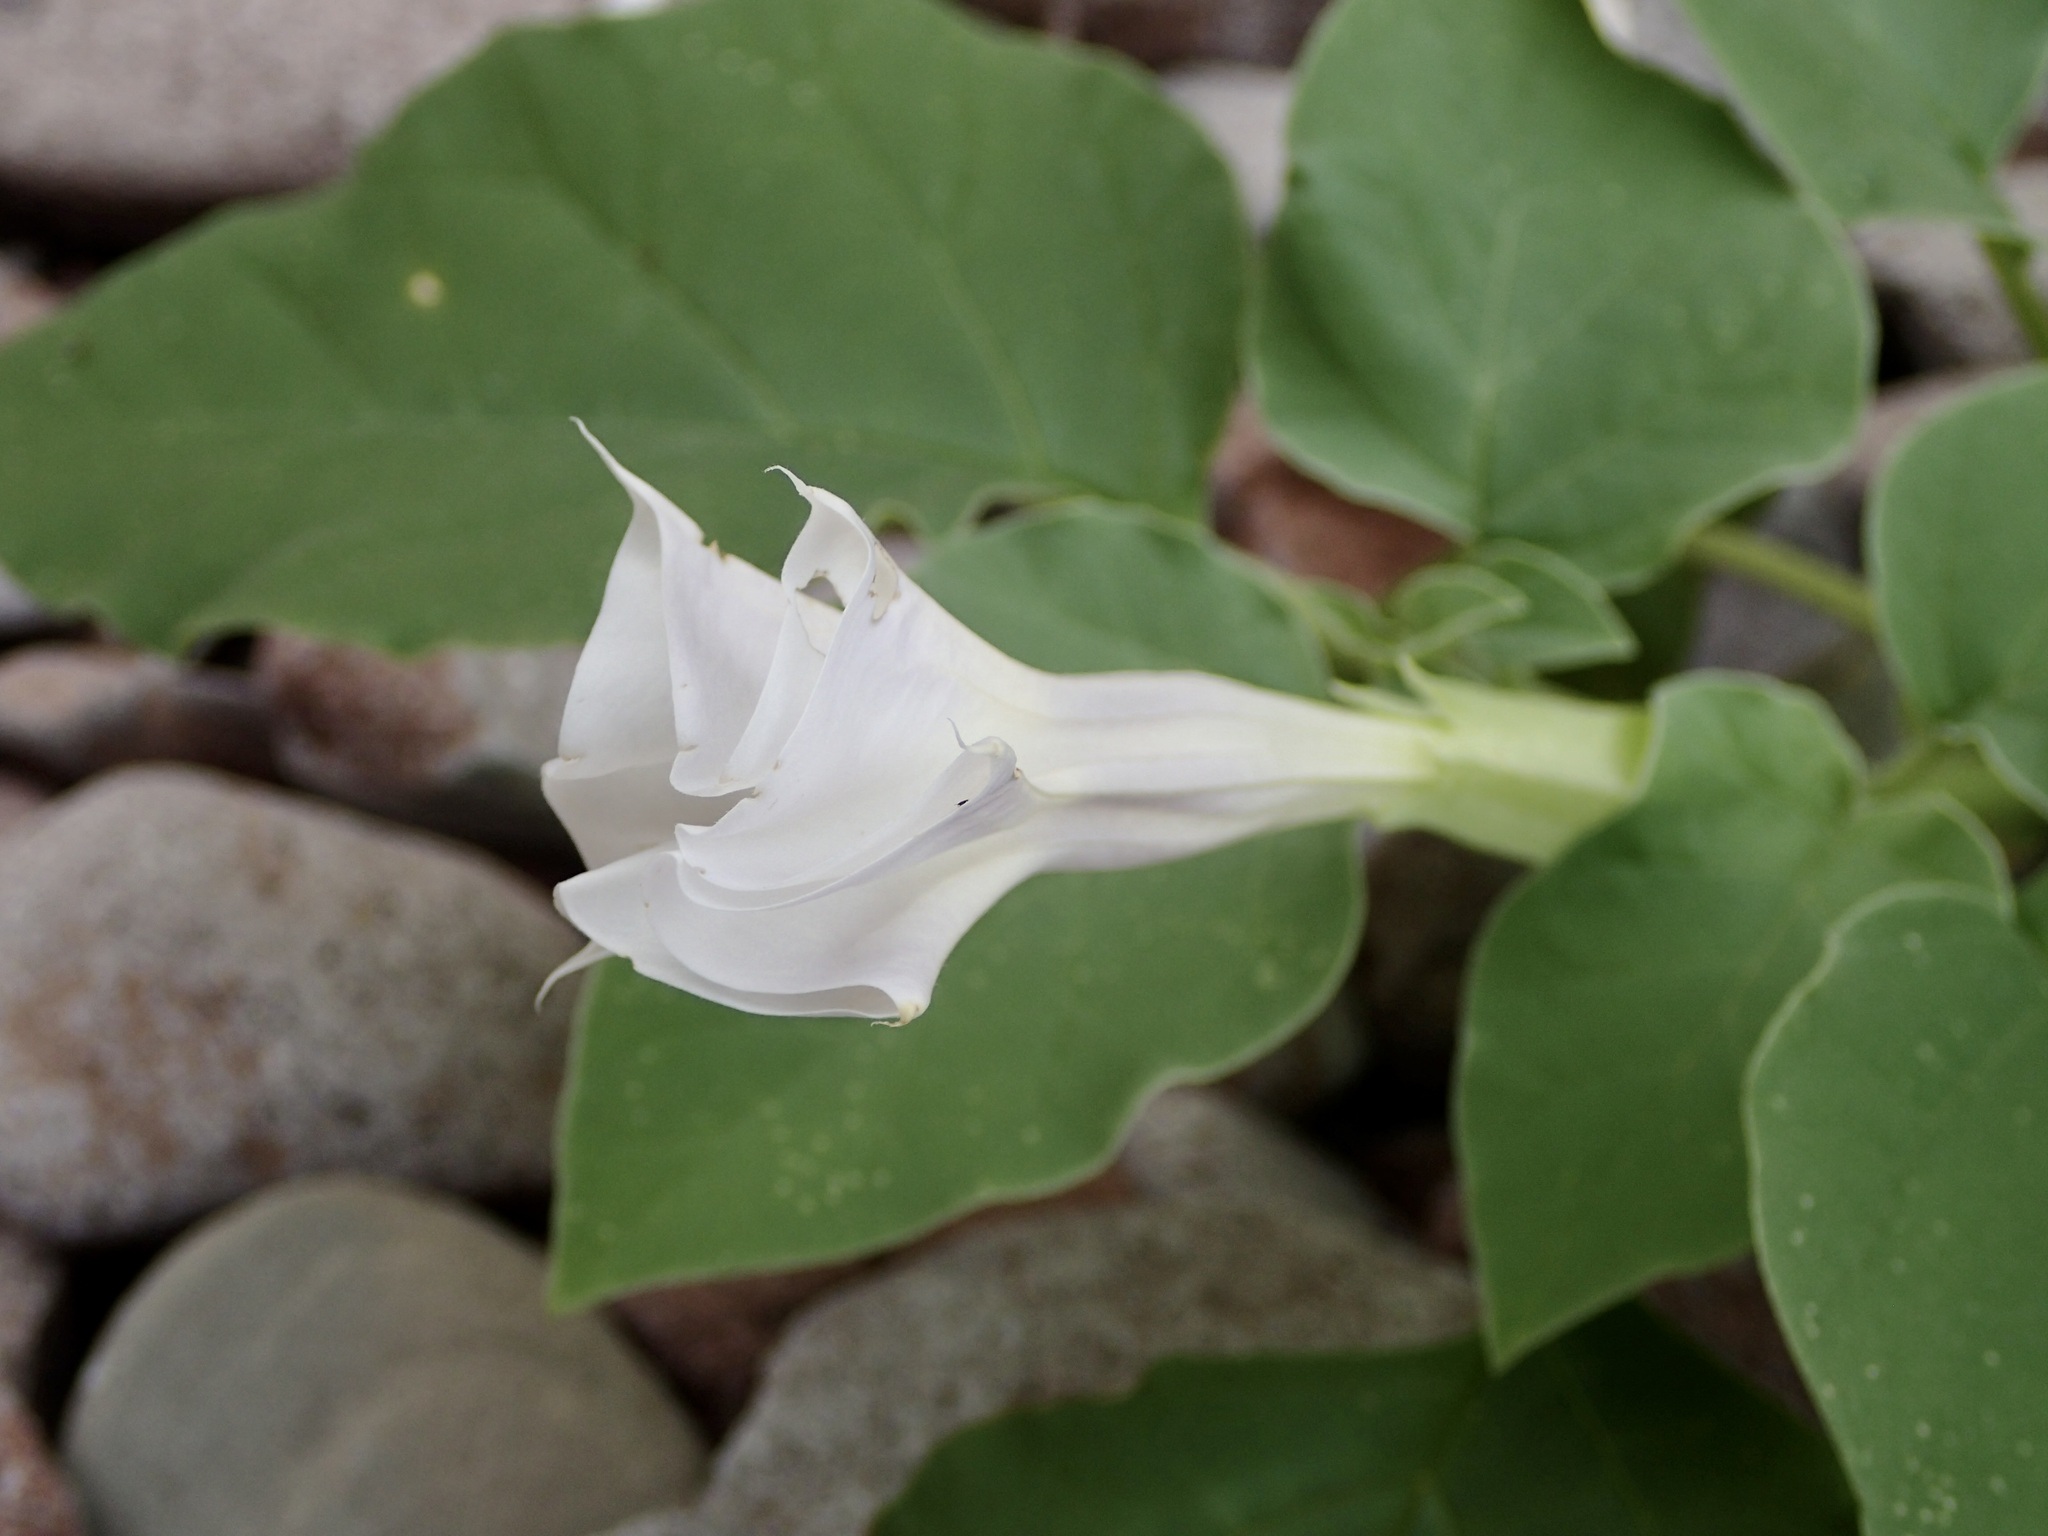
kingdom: Plantae
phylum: Tracheophyta
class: Magnoliopsida
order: Solanales
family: Solanaceae
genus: Datura
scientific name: Datura discolor
